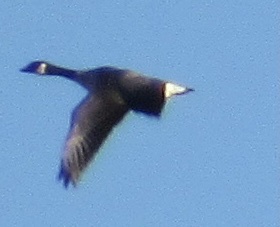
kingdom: Animalia
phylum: Chordata
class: Aves
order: Anseriformes
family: Anatidae
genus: Branta
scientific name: Branta canadensis
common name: Canada goose
